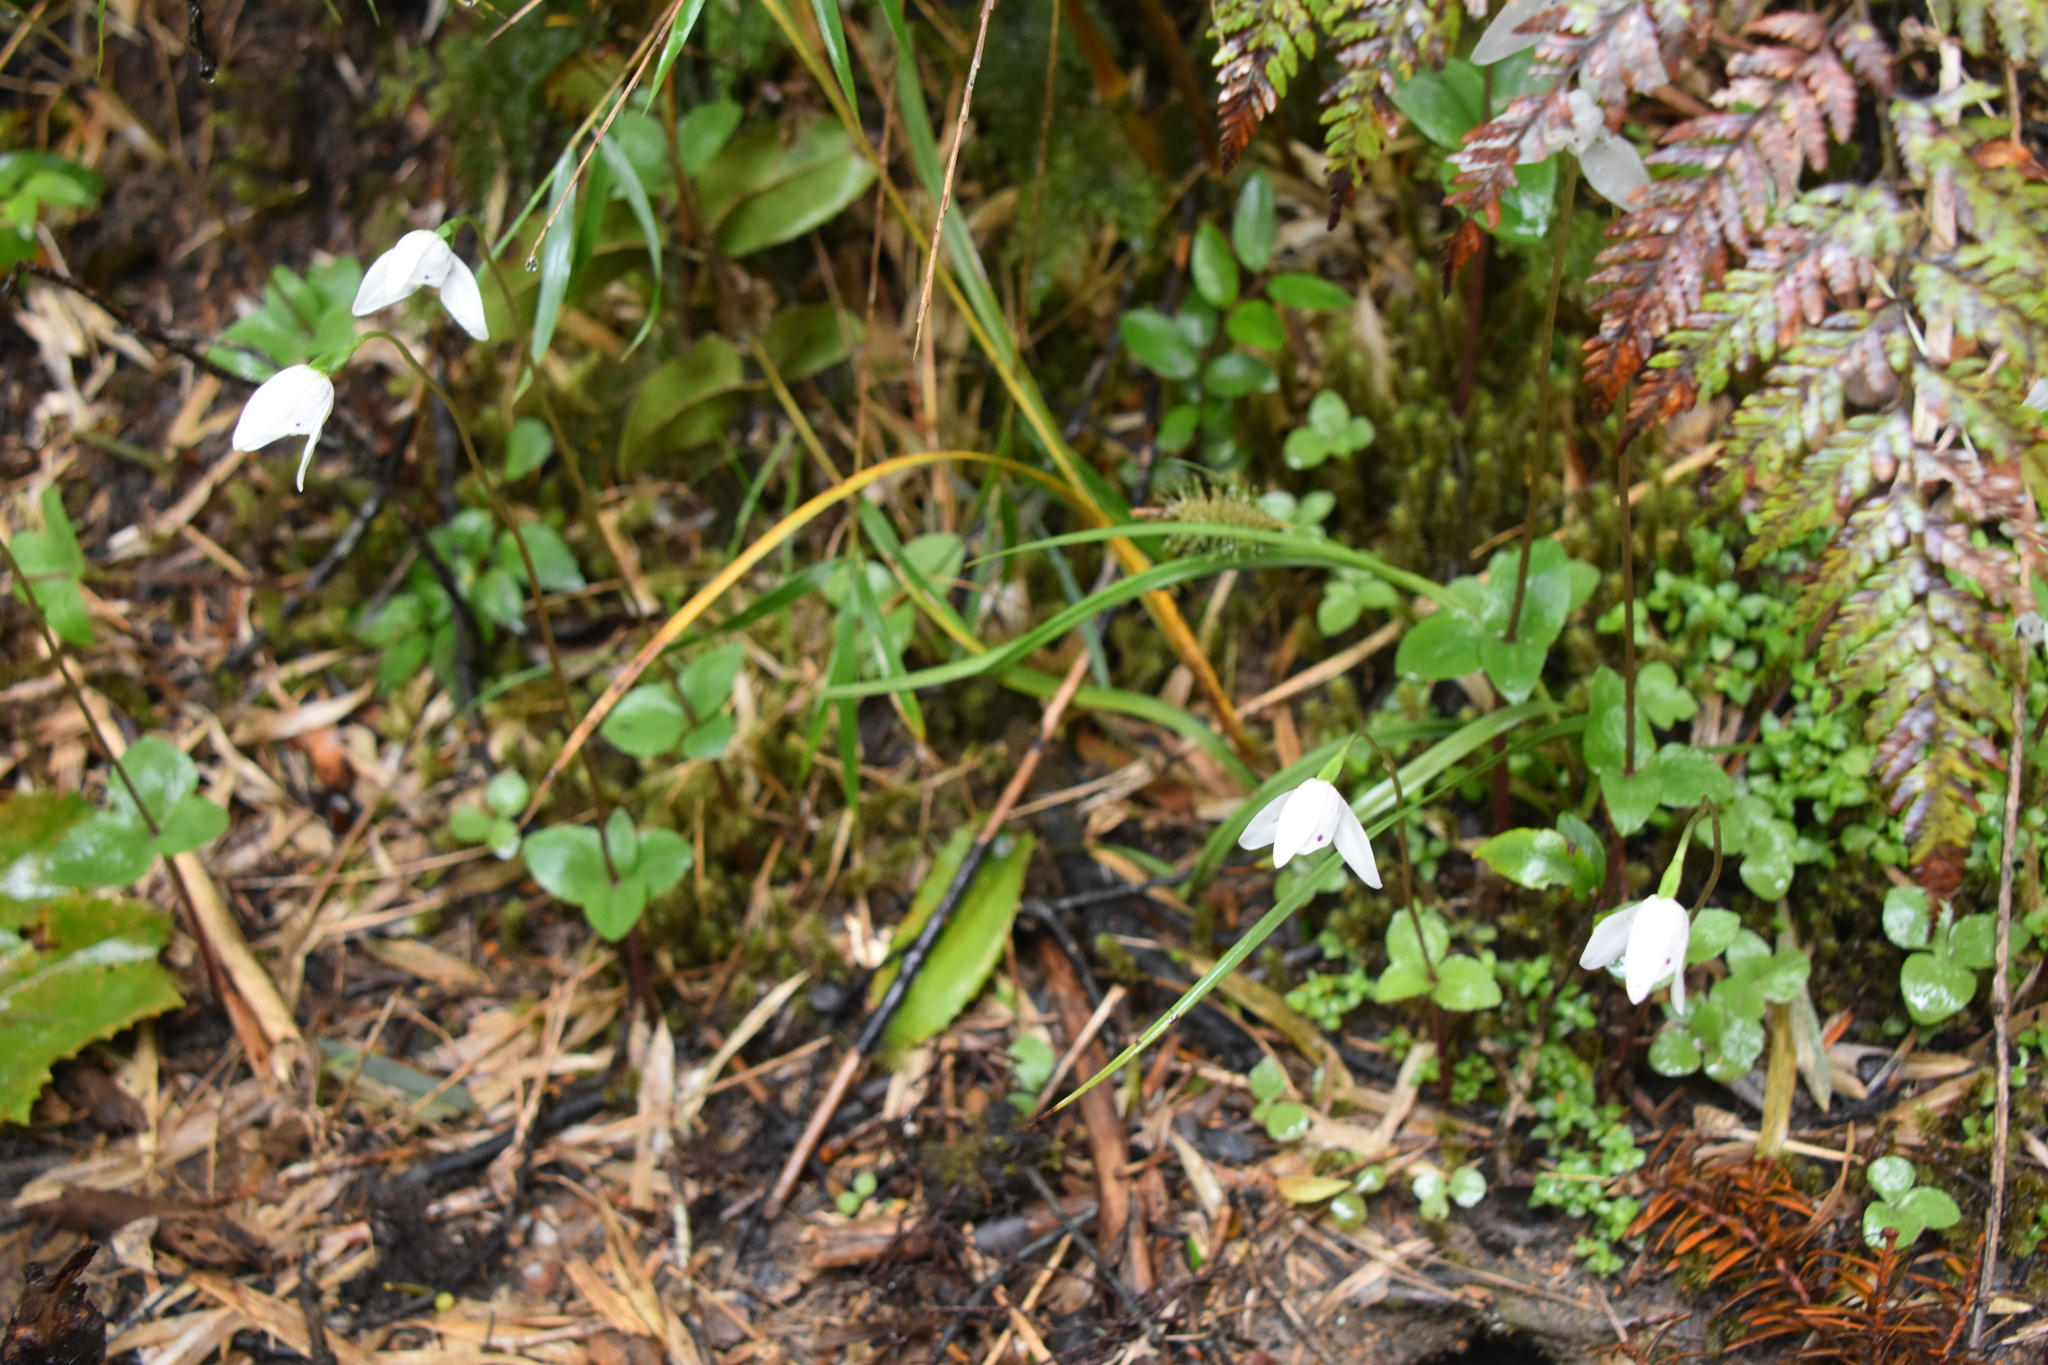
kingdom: Plantae
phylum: Tracheophyta
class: Liliopsida
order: Asparagales
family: Orchidaceae
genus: Codonorchis
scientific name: Codonorchis lessonii
